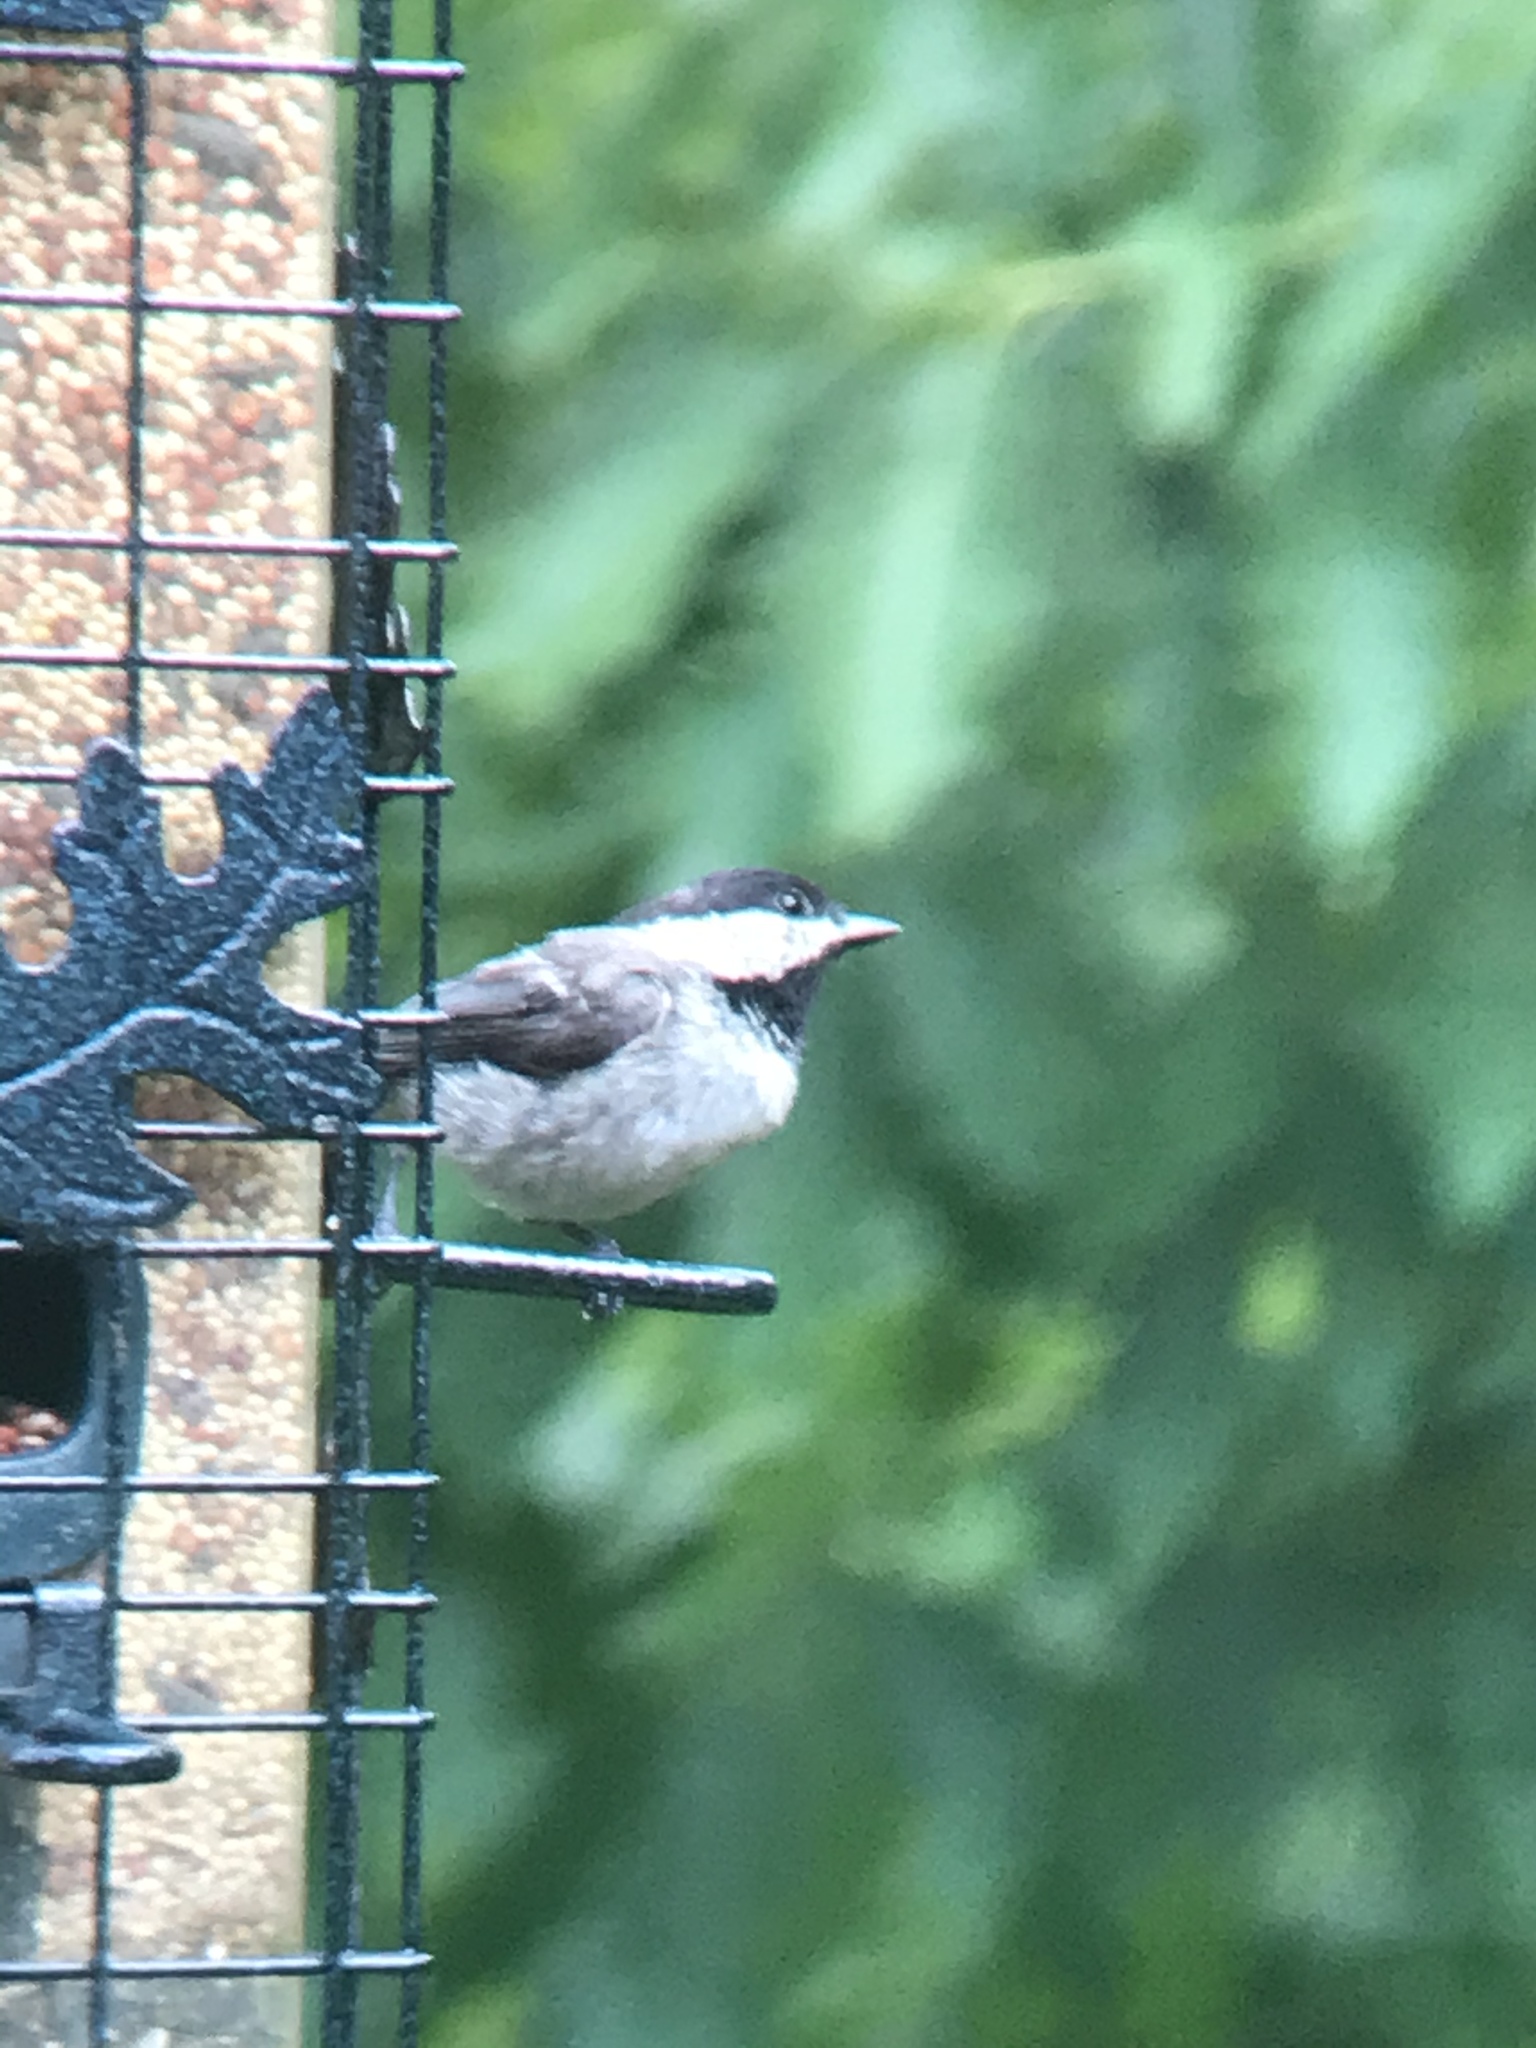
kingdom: Animalia
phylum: Chordata
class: Aves
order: Passeriformes
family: Paridae
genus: Poecile
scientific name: Poecile carolinensis
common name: Carolina chickadee
